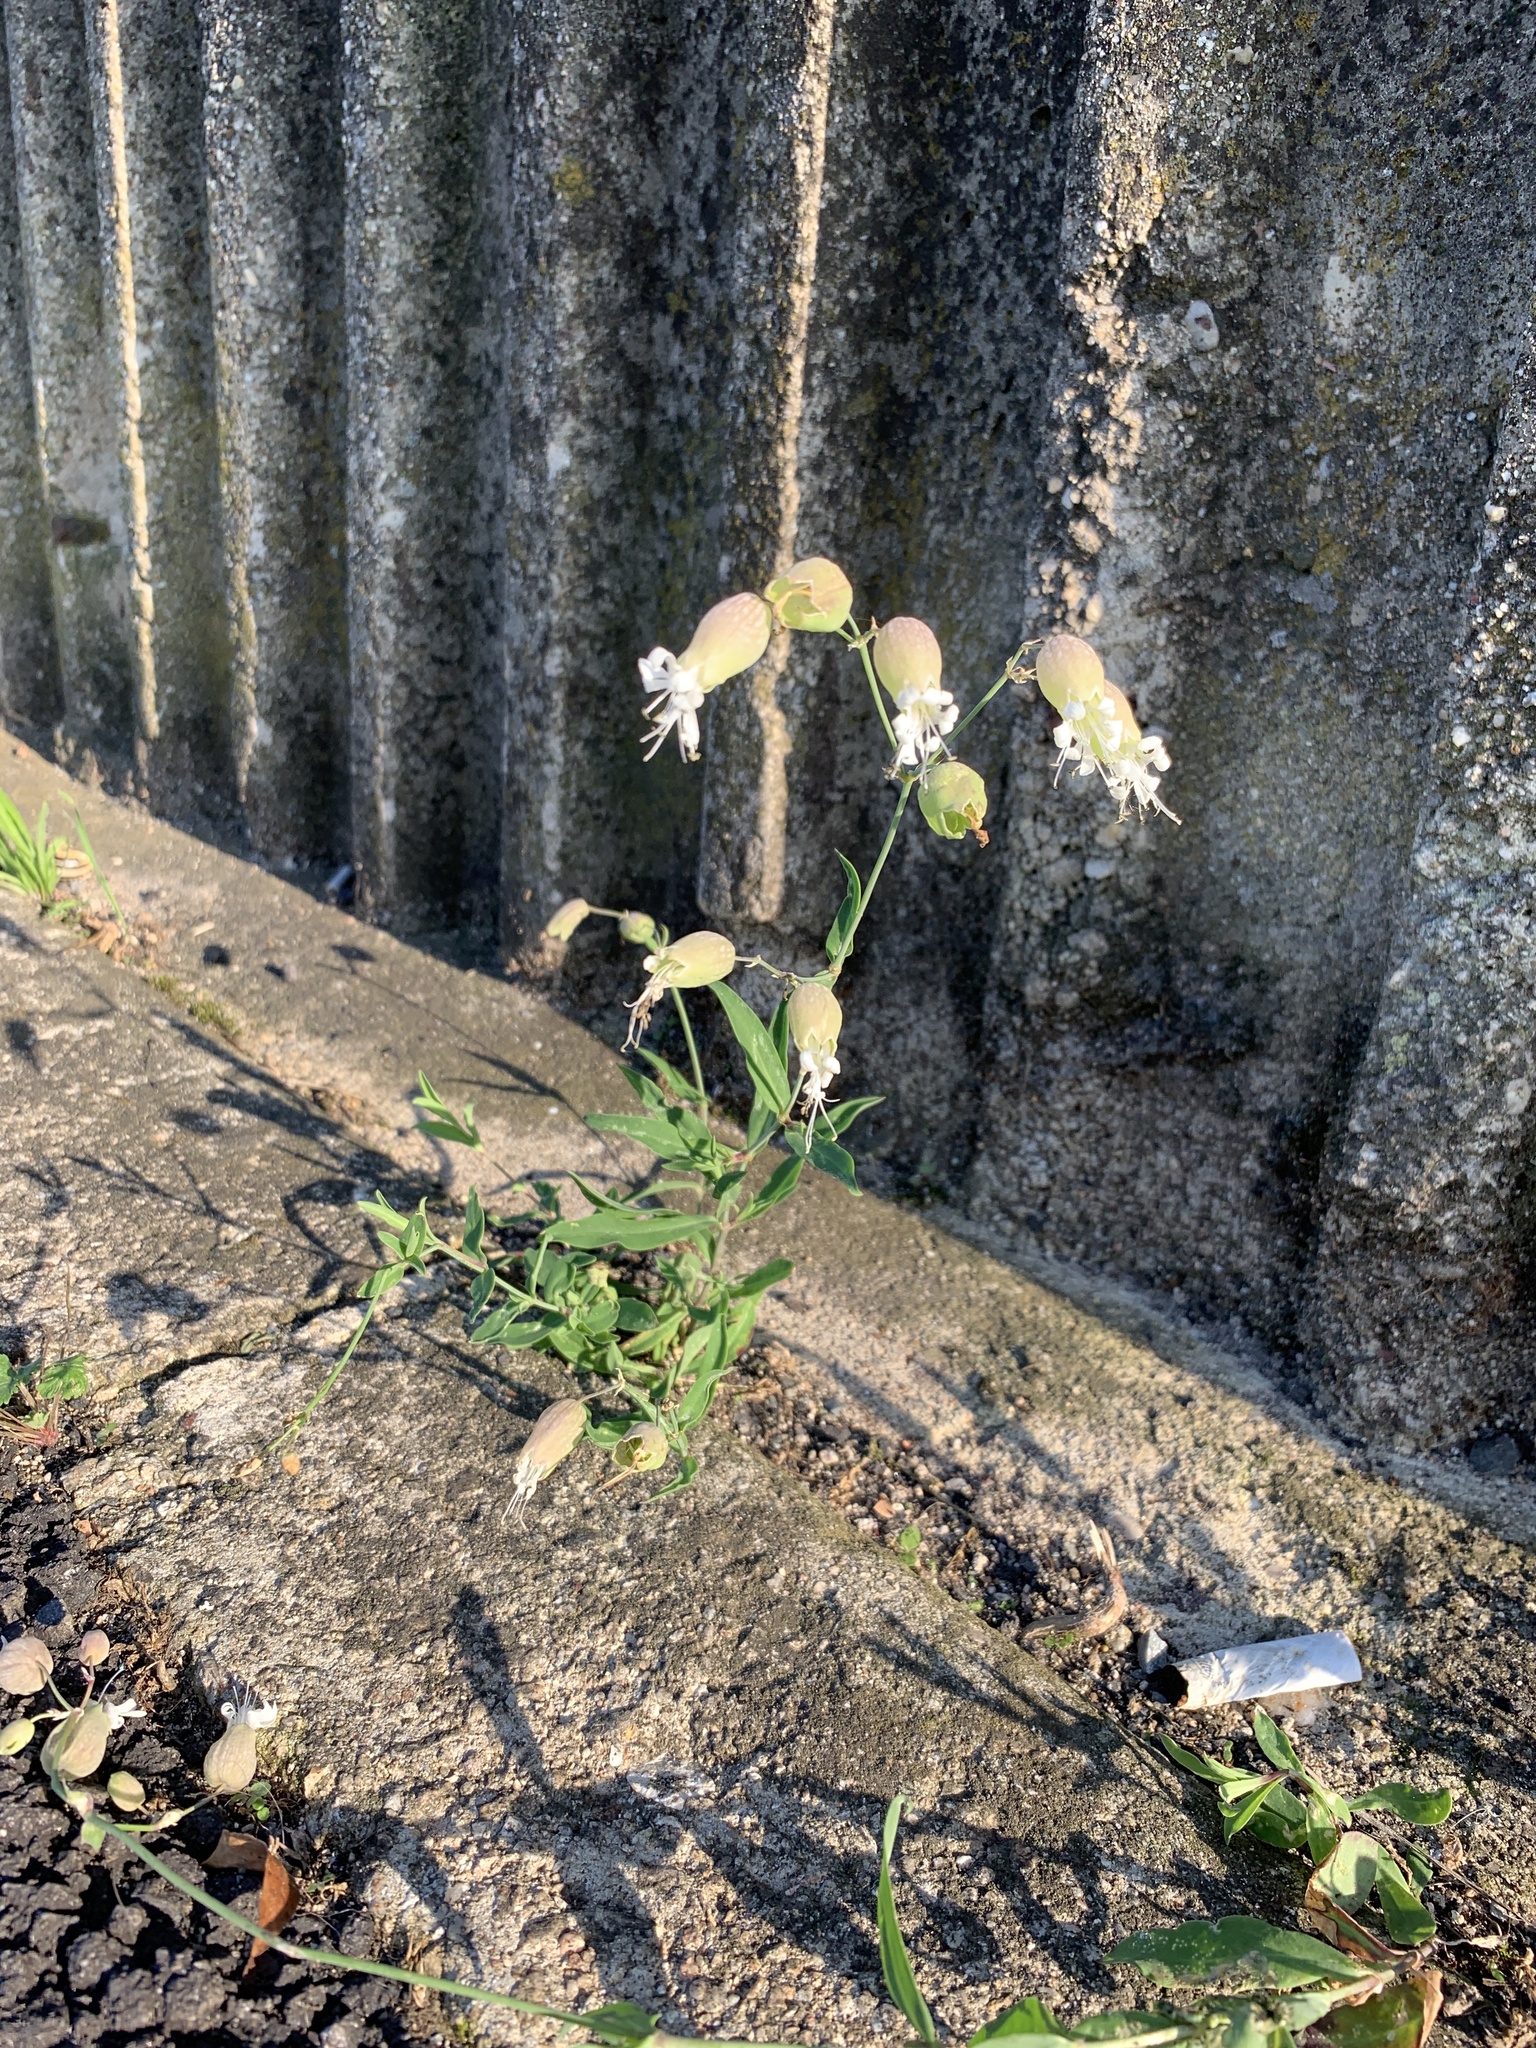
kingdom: Plantae
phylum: Tracheophyta
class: Magnoliopsida
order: Caryophyllales
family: Caryophyllaceae
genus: Silene
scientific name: Silene vulgaris
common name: Bladder campion
